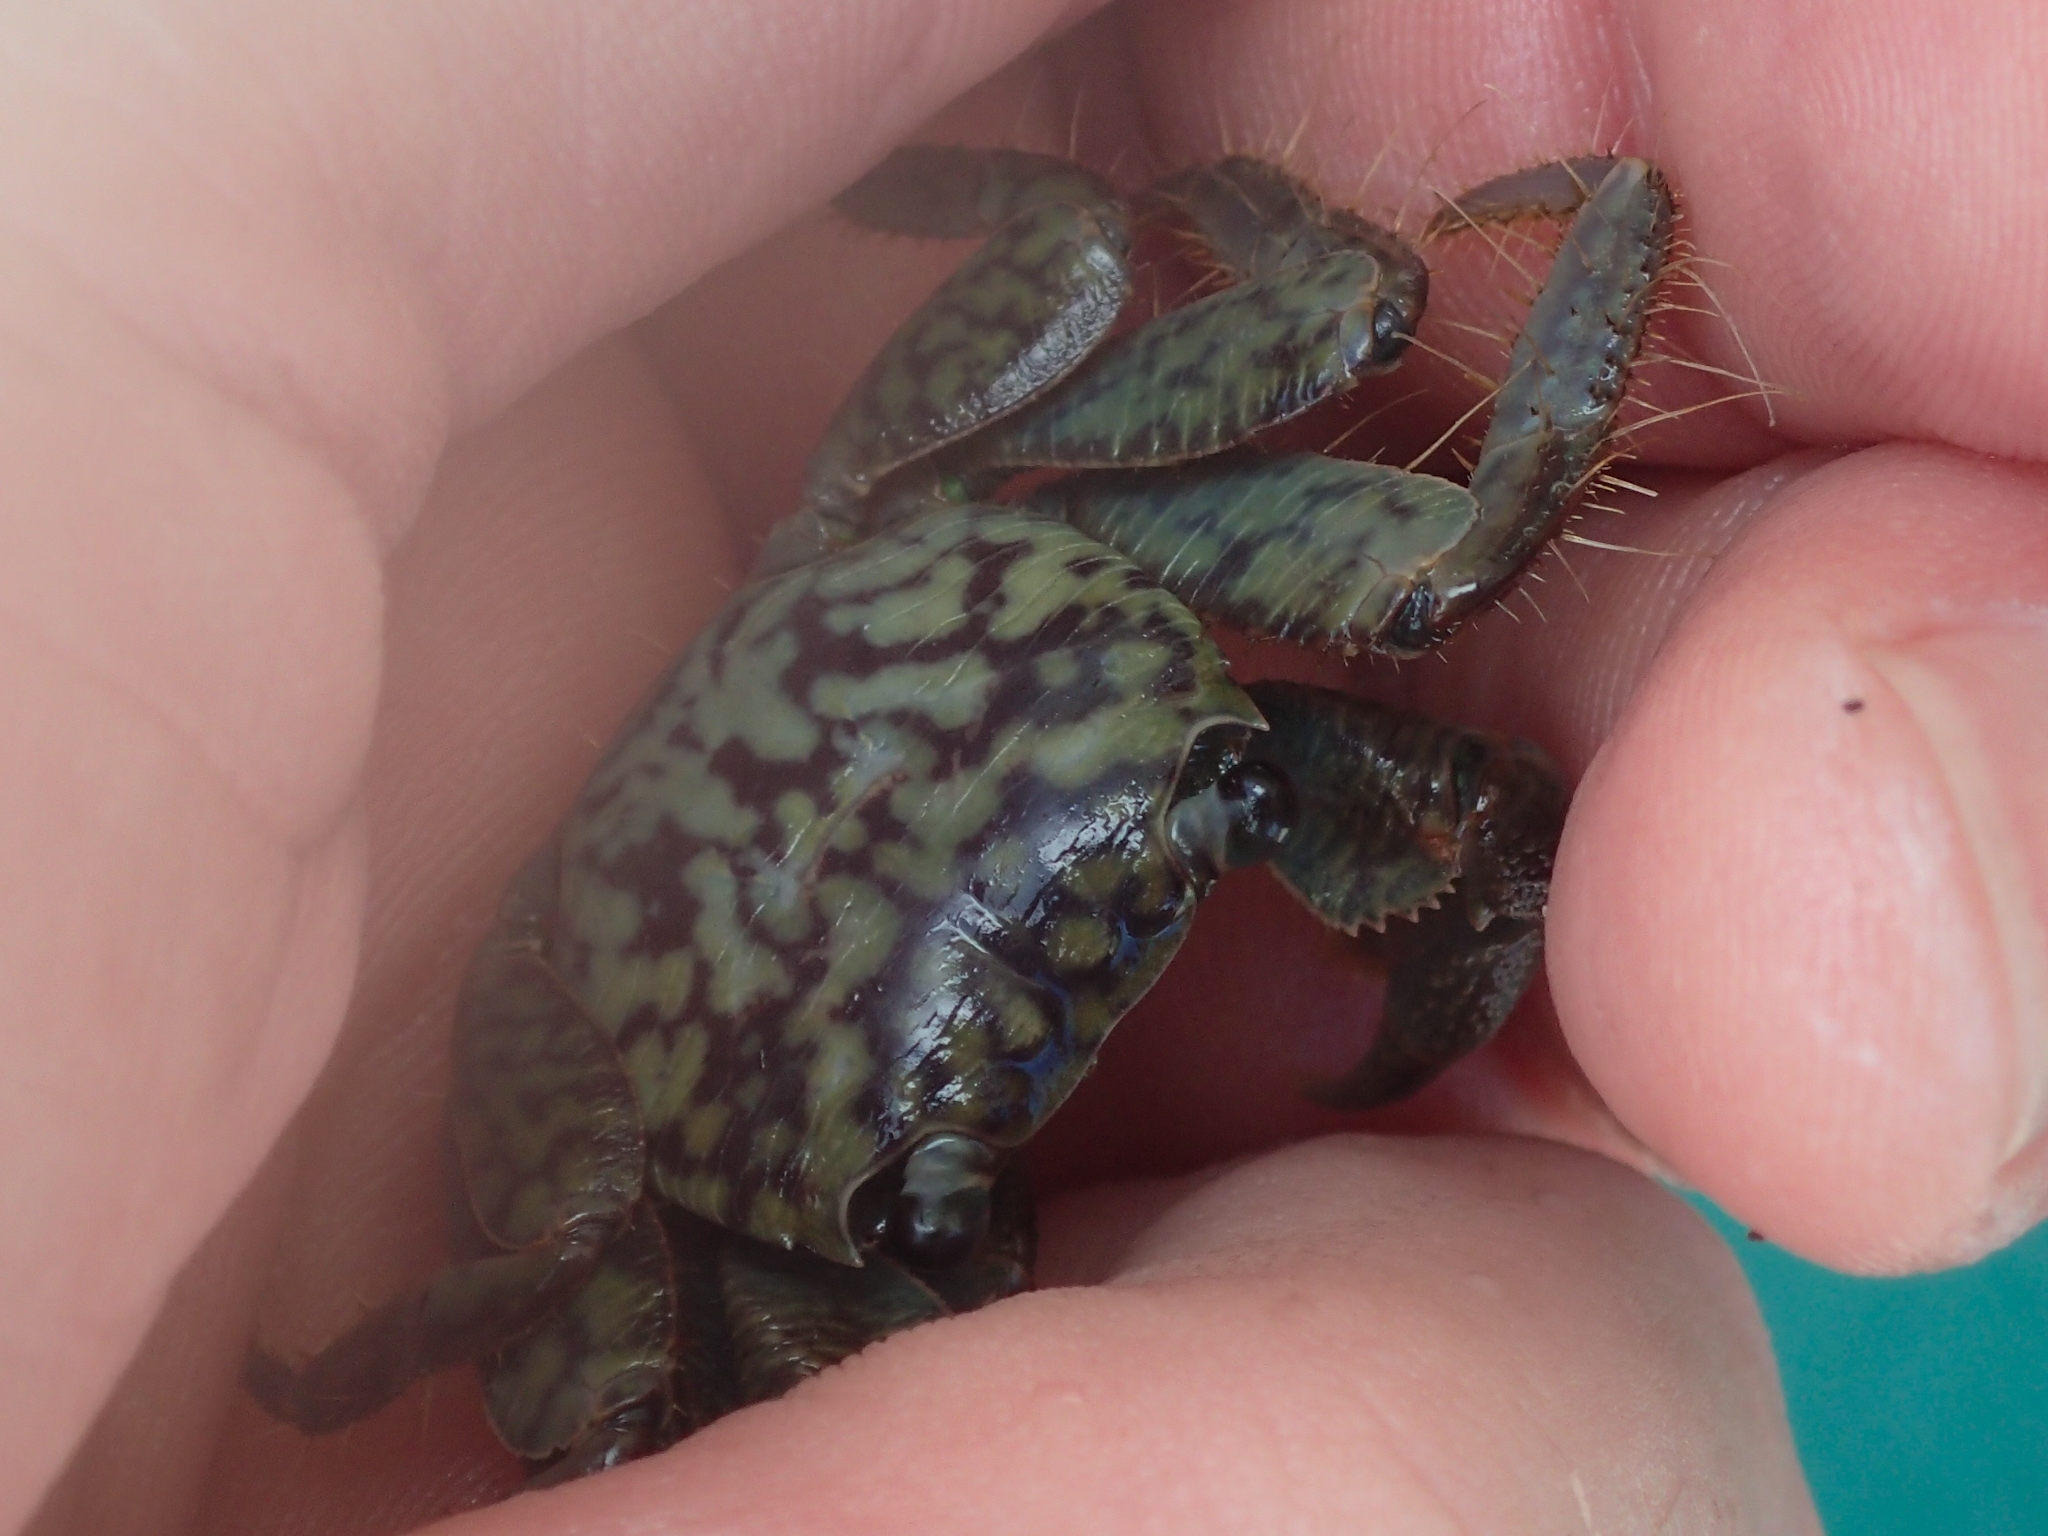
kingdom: Animalia
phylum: Arthropoda
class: Malacostraca
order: Decapoda
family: Grapsidae
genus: Geograpsus
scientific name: Geograpsus lividus
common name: Variegate shore crab
